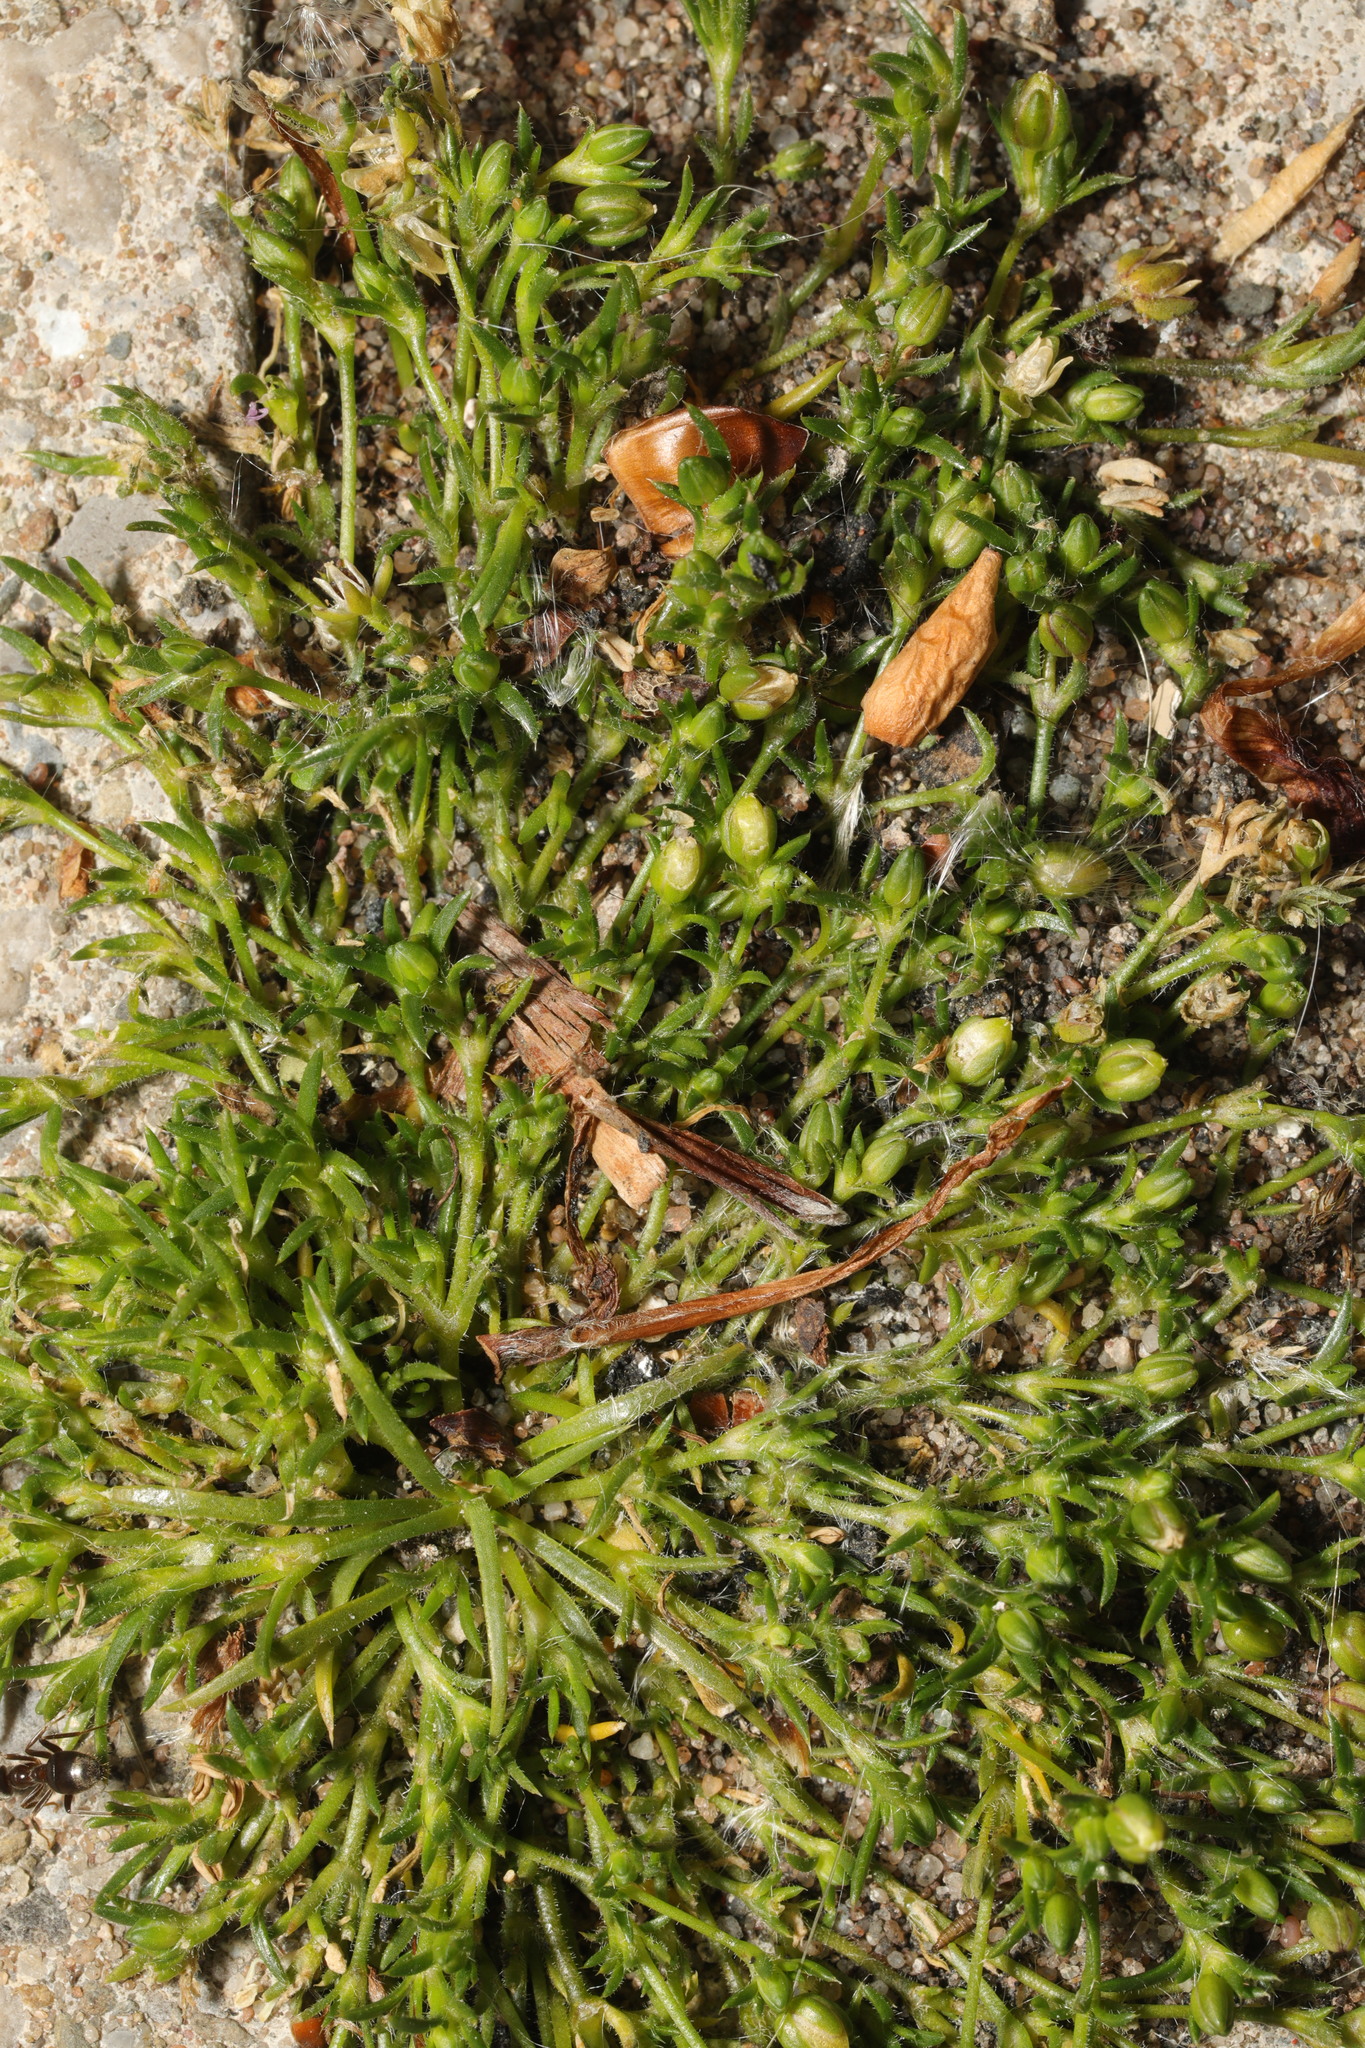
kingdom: Plantae
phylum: Tracheophyta
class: Magnoliopsida
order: Caryophyllales
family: Caryophyllaceae
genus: Sagina
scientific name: Sagina procumbens
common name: Procumbent pearlwort
